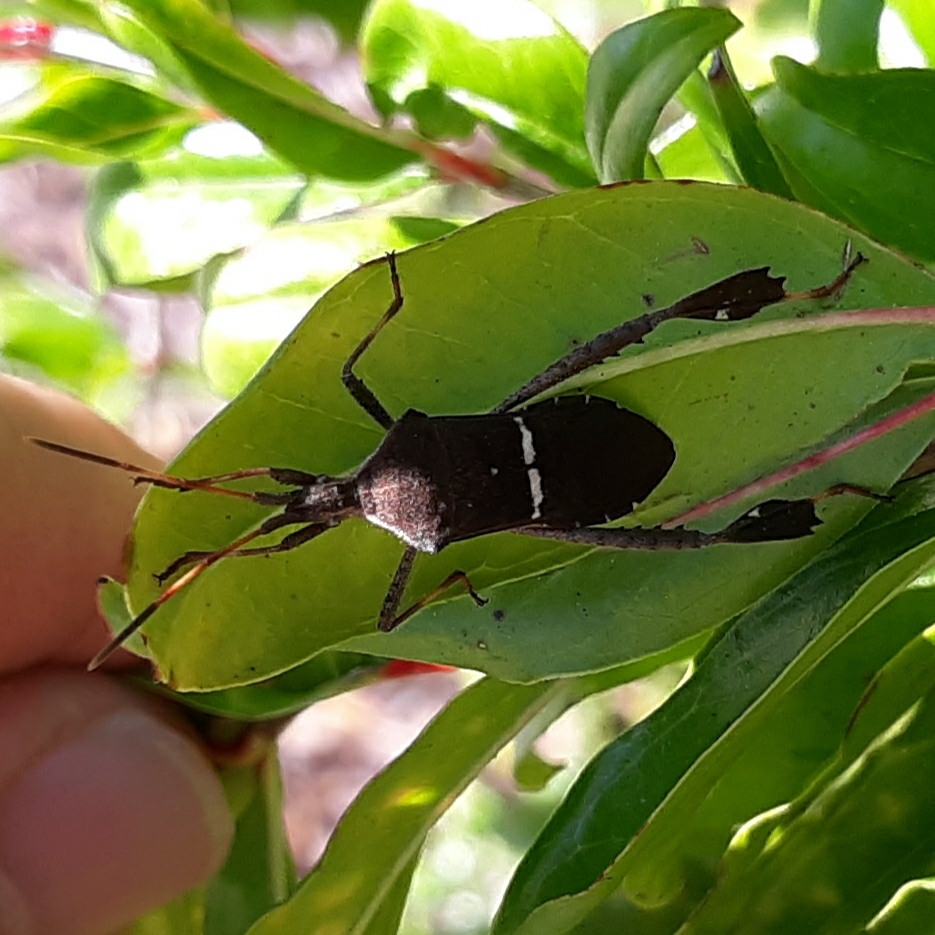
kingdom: Animalia
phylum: Arthropoda
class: Insecta
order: Hemiptera
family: Coreidae
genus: Leptoglossus
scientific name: Leptoglossus phyllopus
